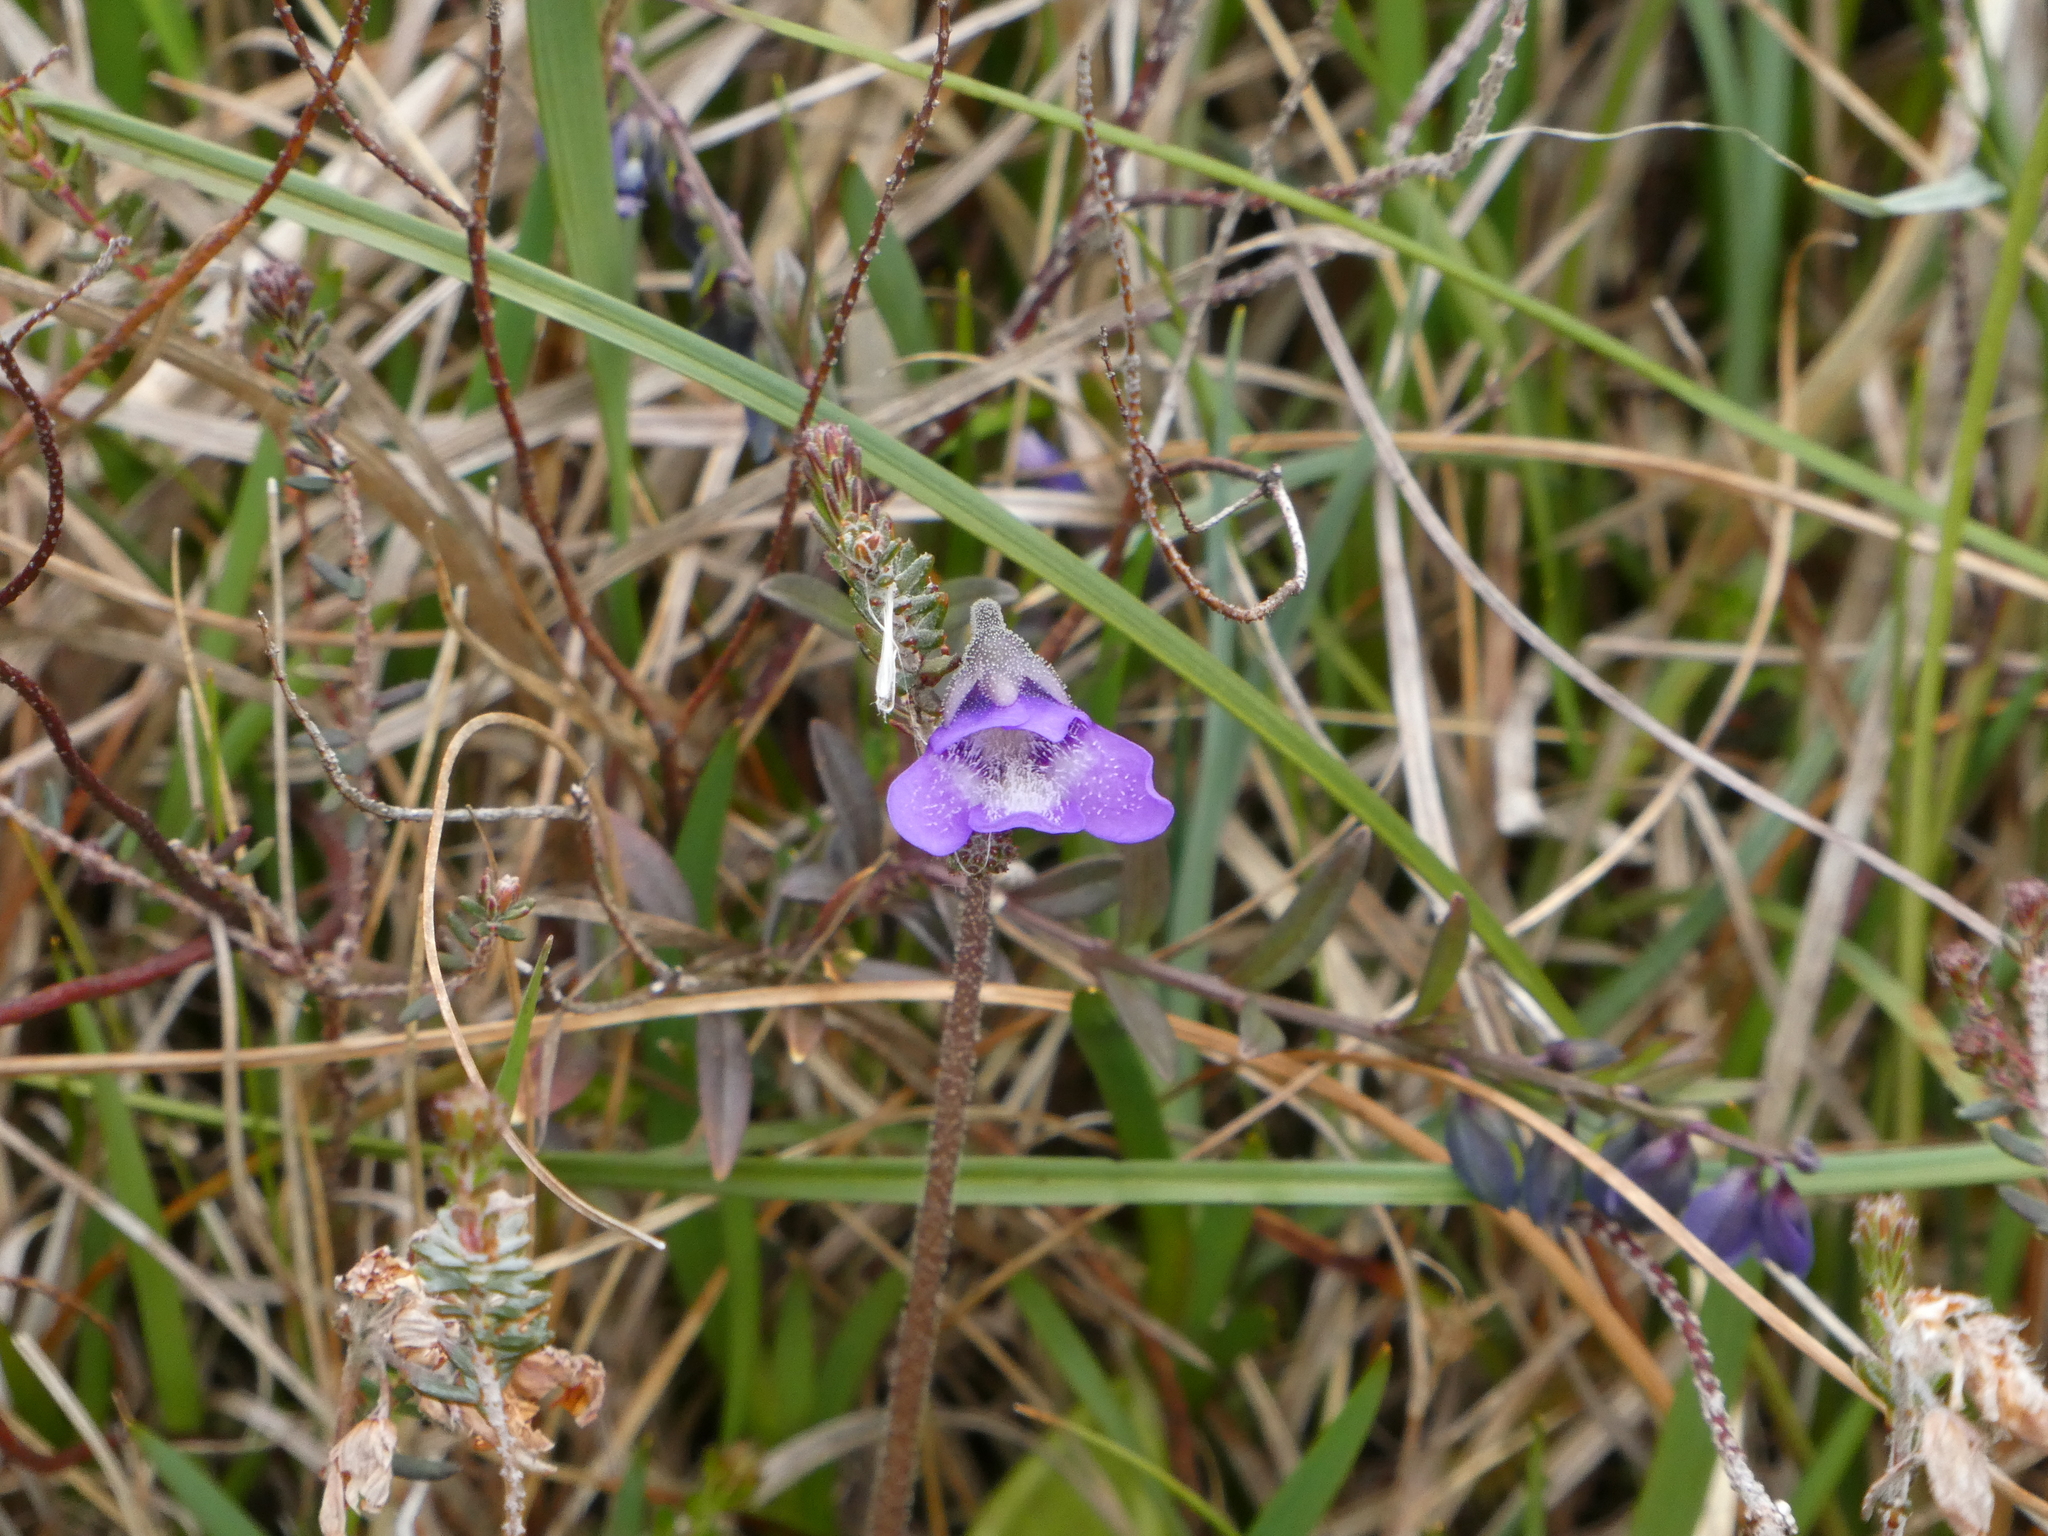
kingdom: Plantae
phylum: Tracheophyta
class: Magnoliopsida
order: Lamiales
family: Lentibulariaceae
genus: Pinguicula
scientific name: Pinguicula vulgaris
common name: Common butterwort
